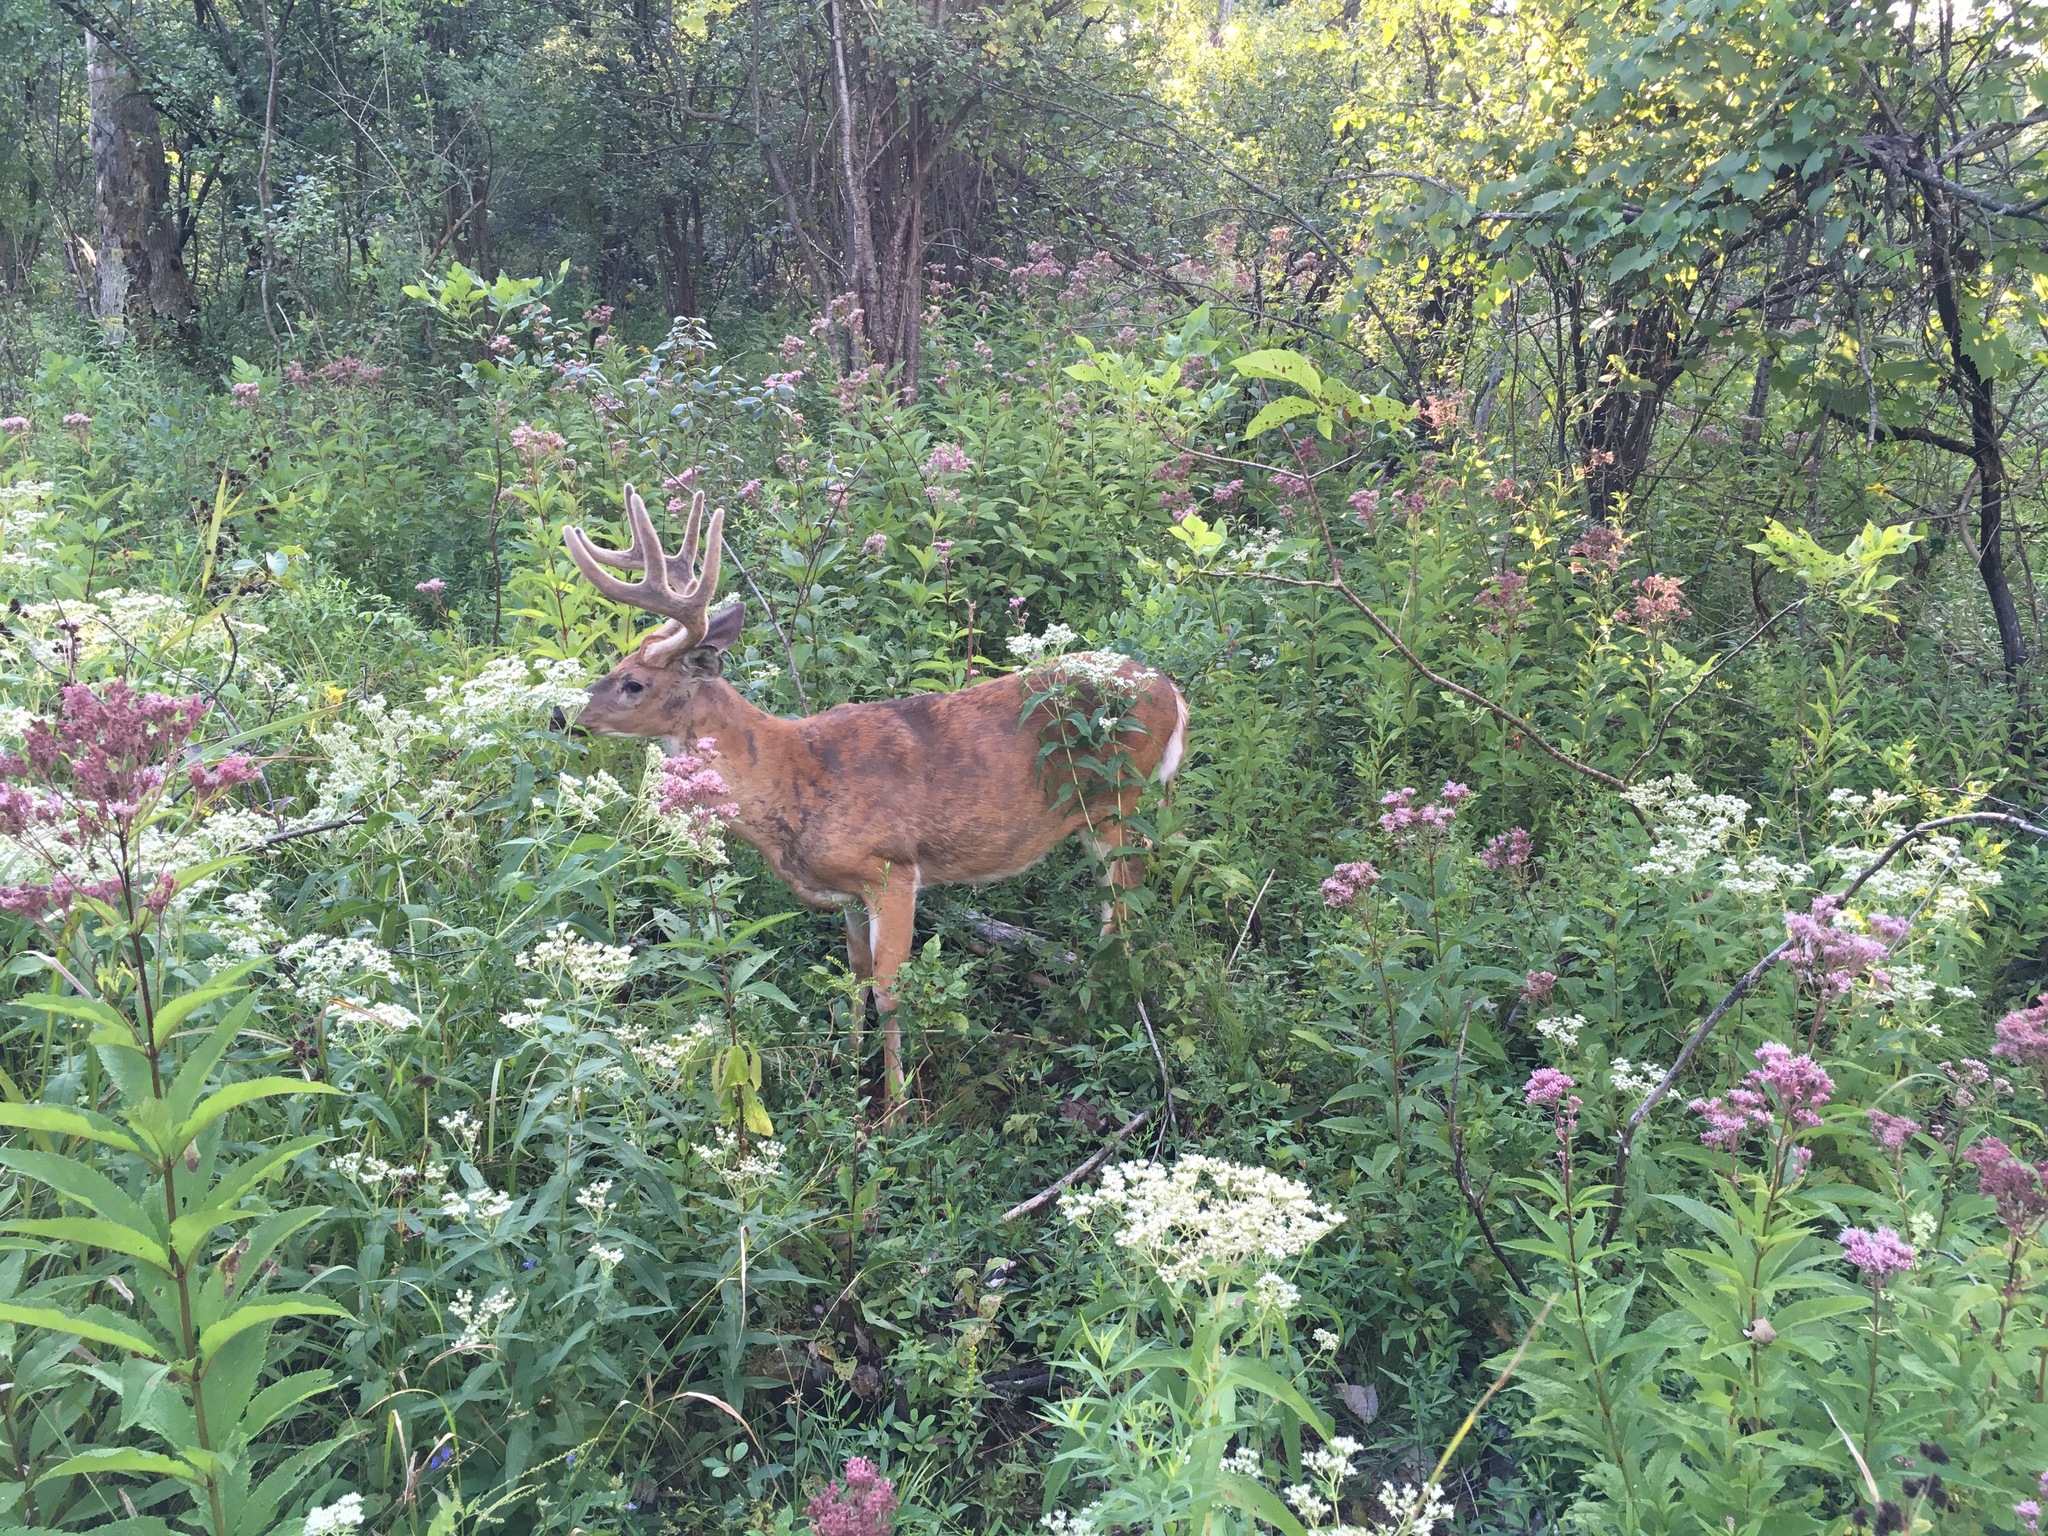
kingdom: Animalia
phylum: Chordata
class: Mammalia
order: Artiodactyla
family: Cervidae
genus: Odocoileus
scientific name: Odocoileus virginianus
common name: White-tailed deer
